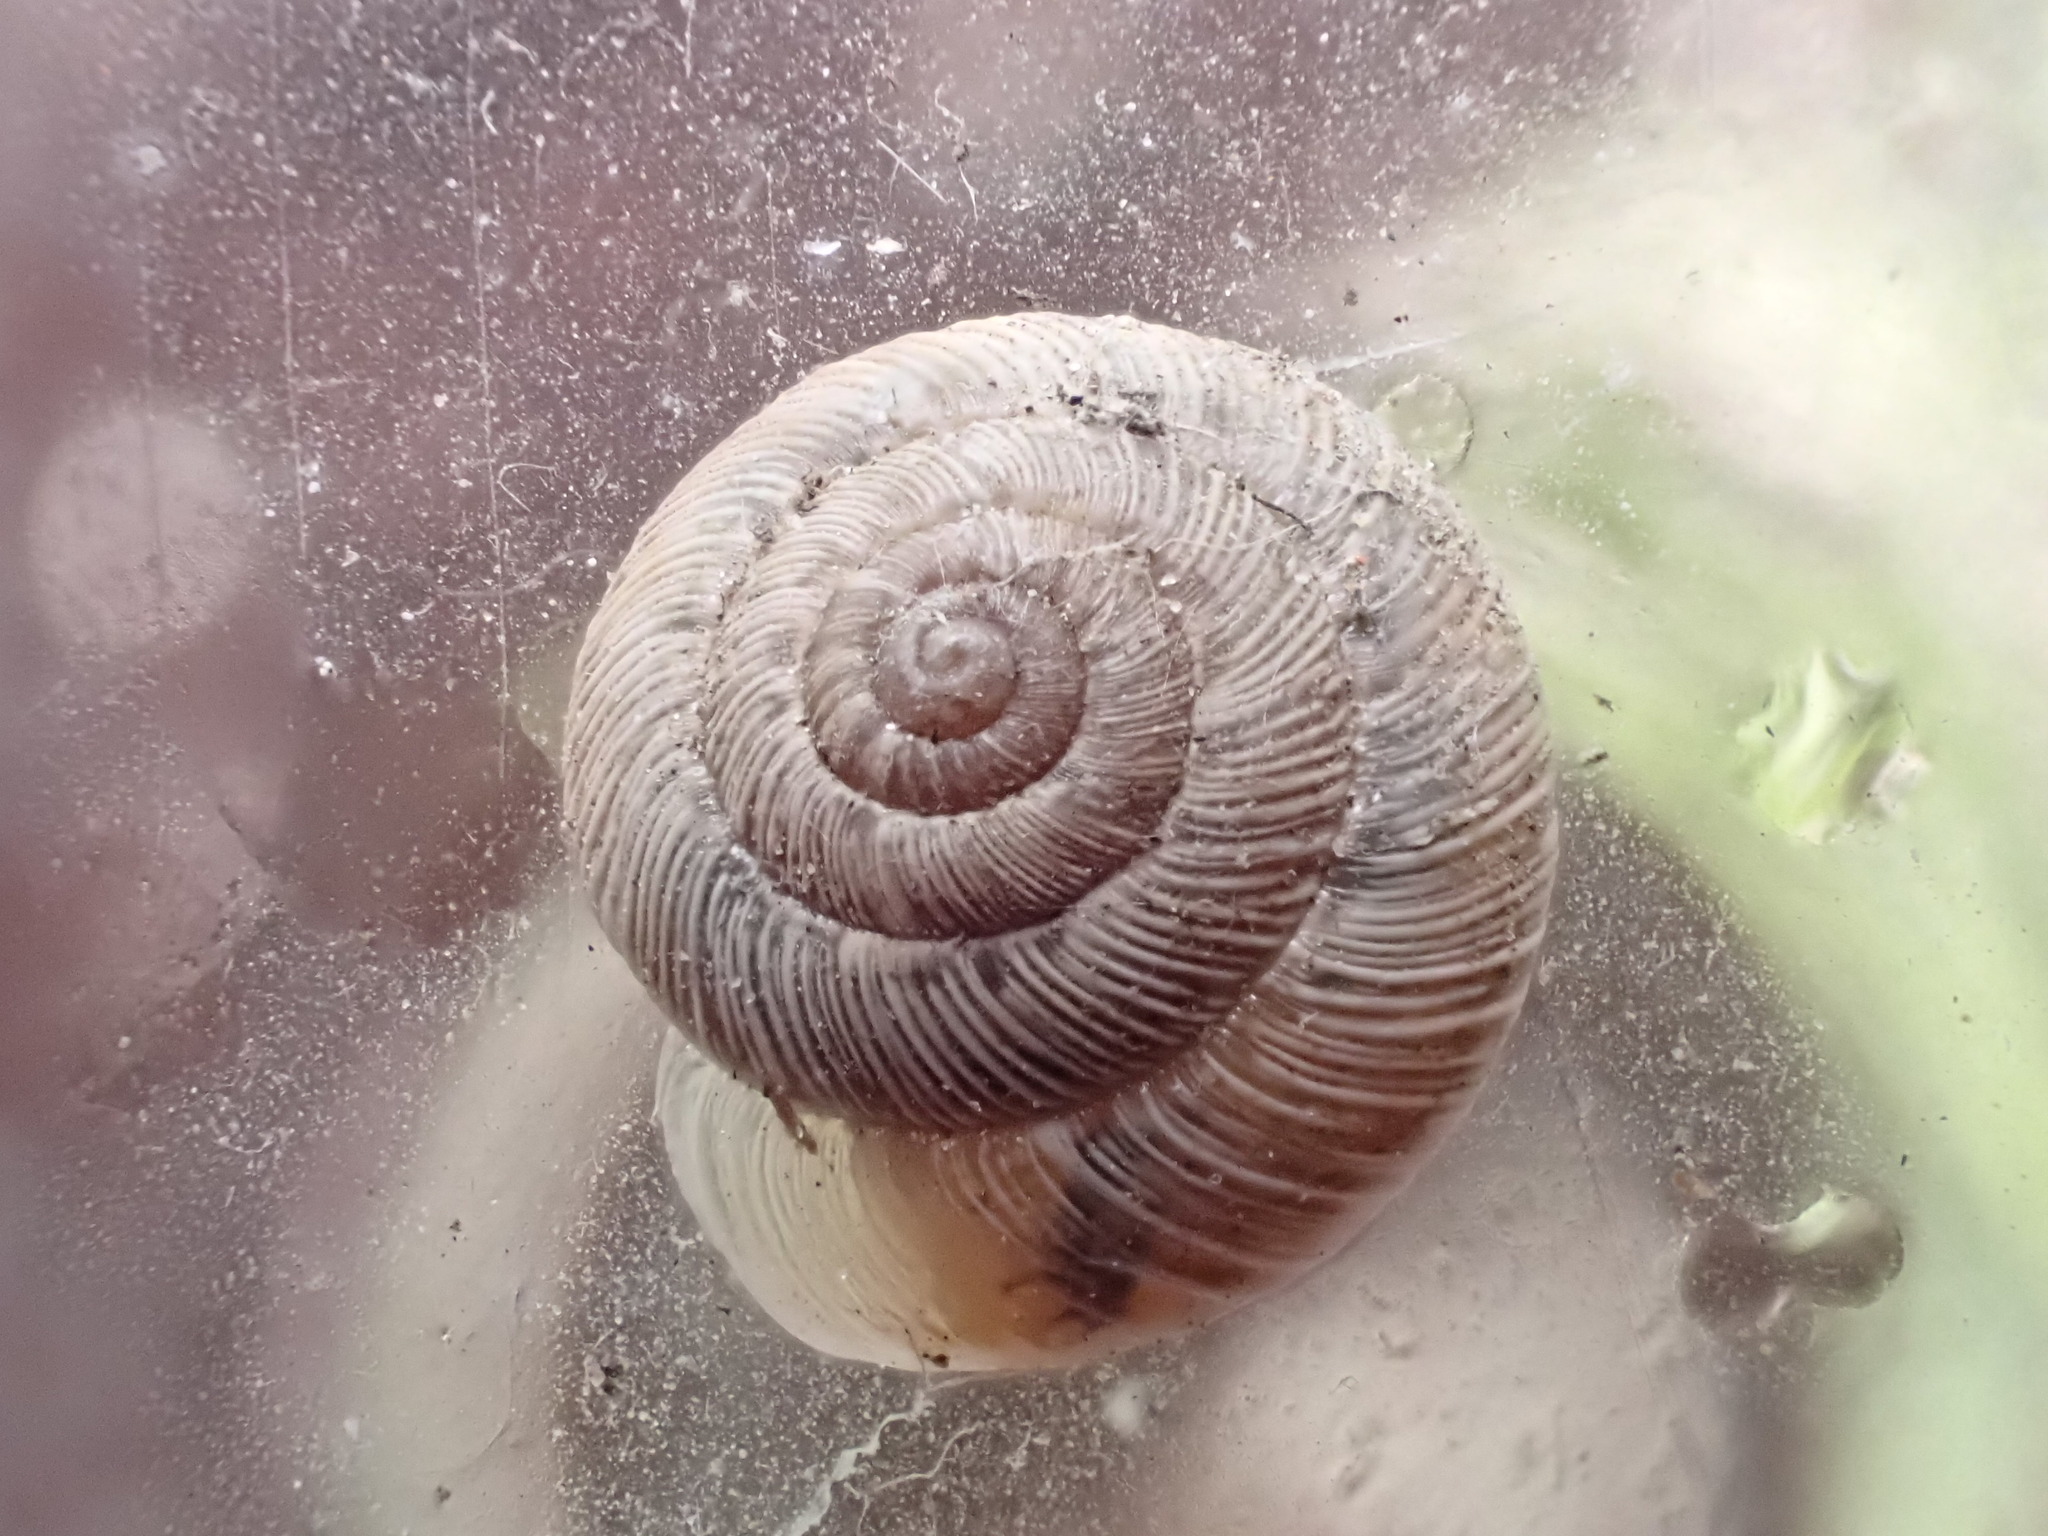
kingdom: Animalia
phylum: Mollusca
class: Gastropoda
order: Stylommatophora
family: Geomitridae
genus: Xeroplexa
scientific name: Xeroplexa intersecta
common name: Wrinkled snail
